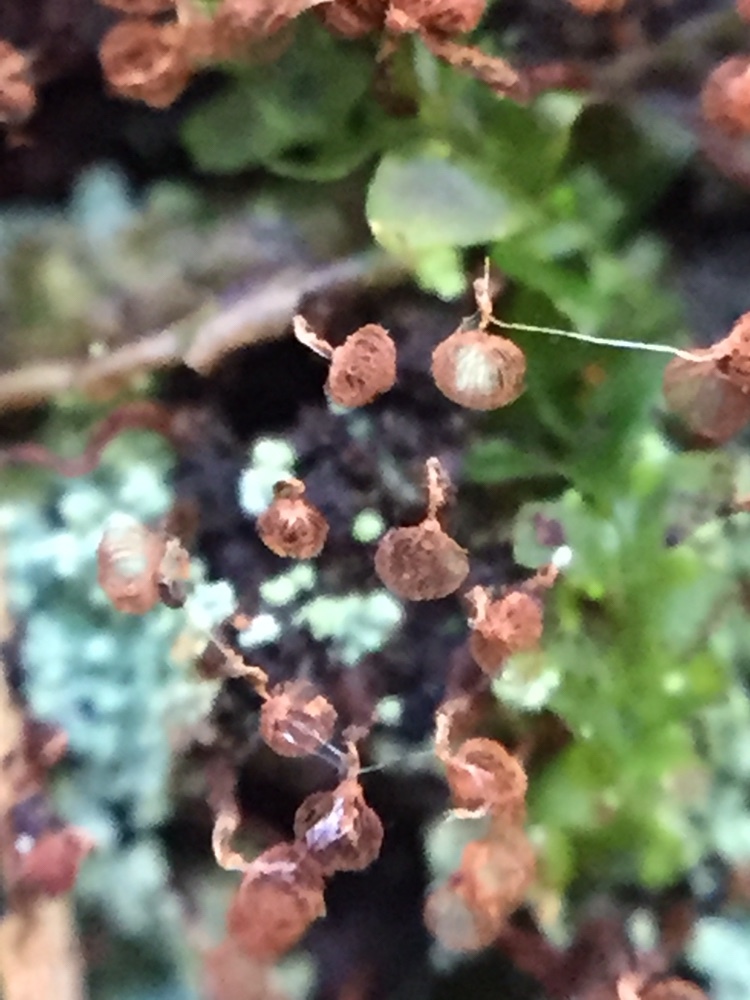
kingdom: Protozoa
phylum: Mycetozoa
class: Myxomycetes
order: Cribrariales
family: Cribrariaceae
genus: Cribraria
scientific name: Cribraria cancellata
